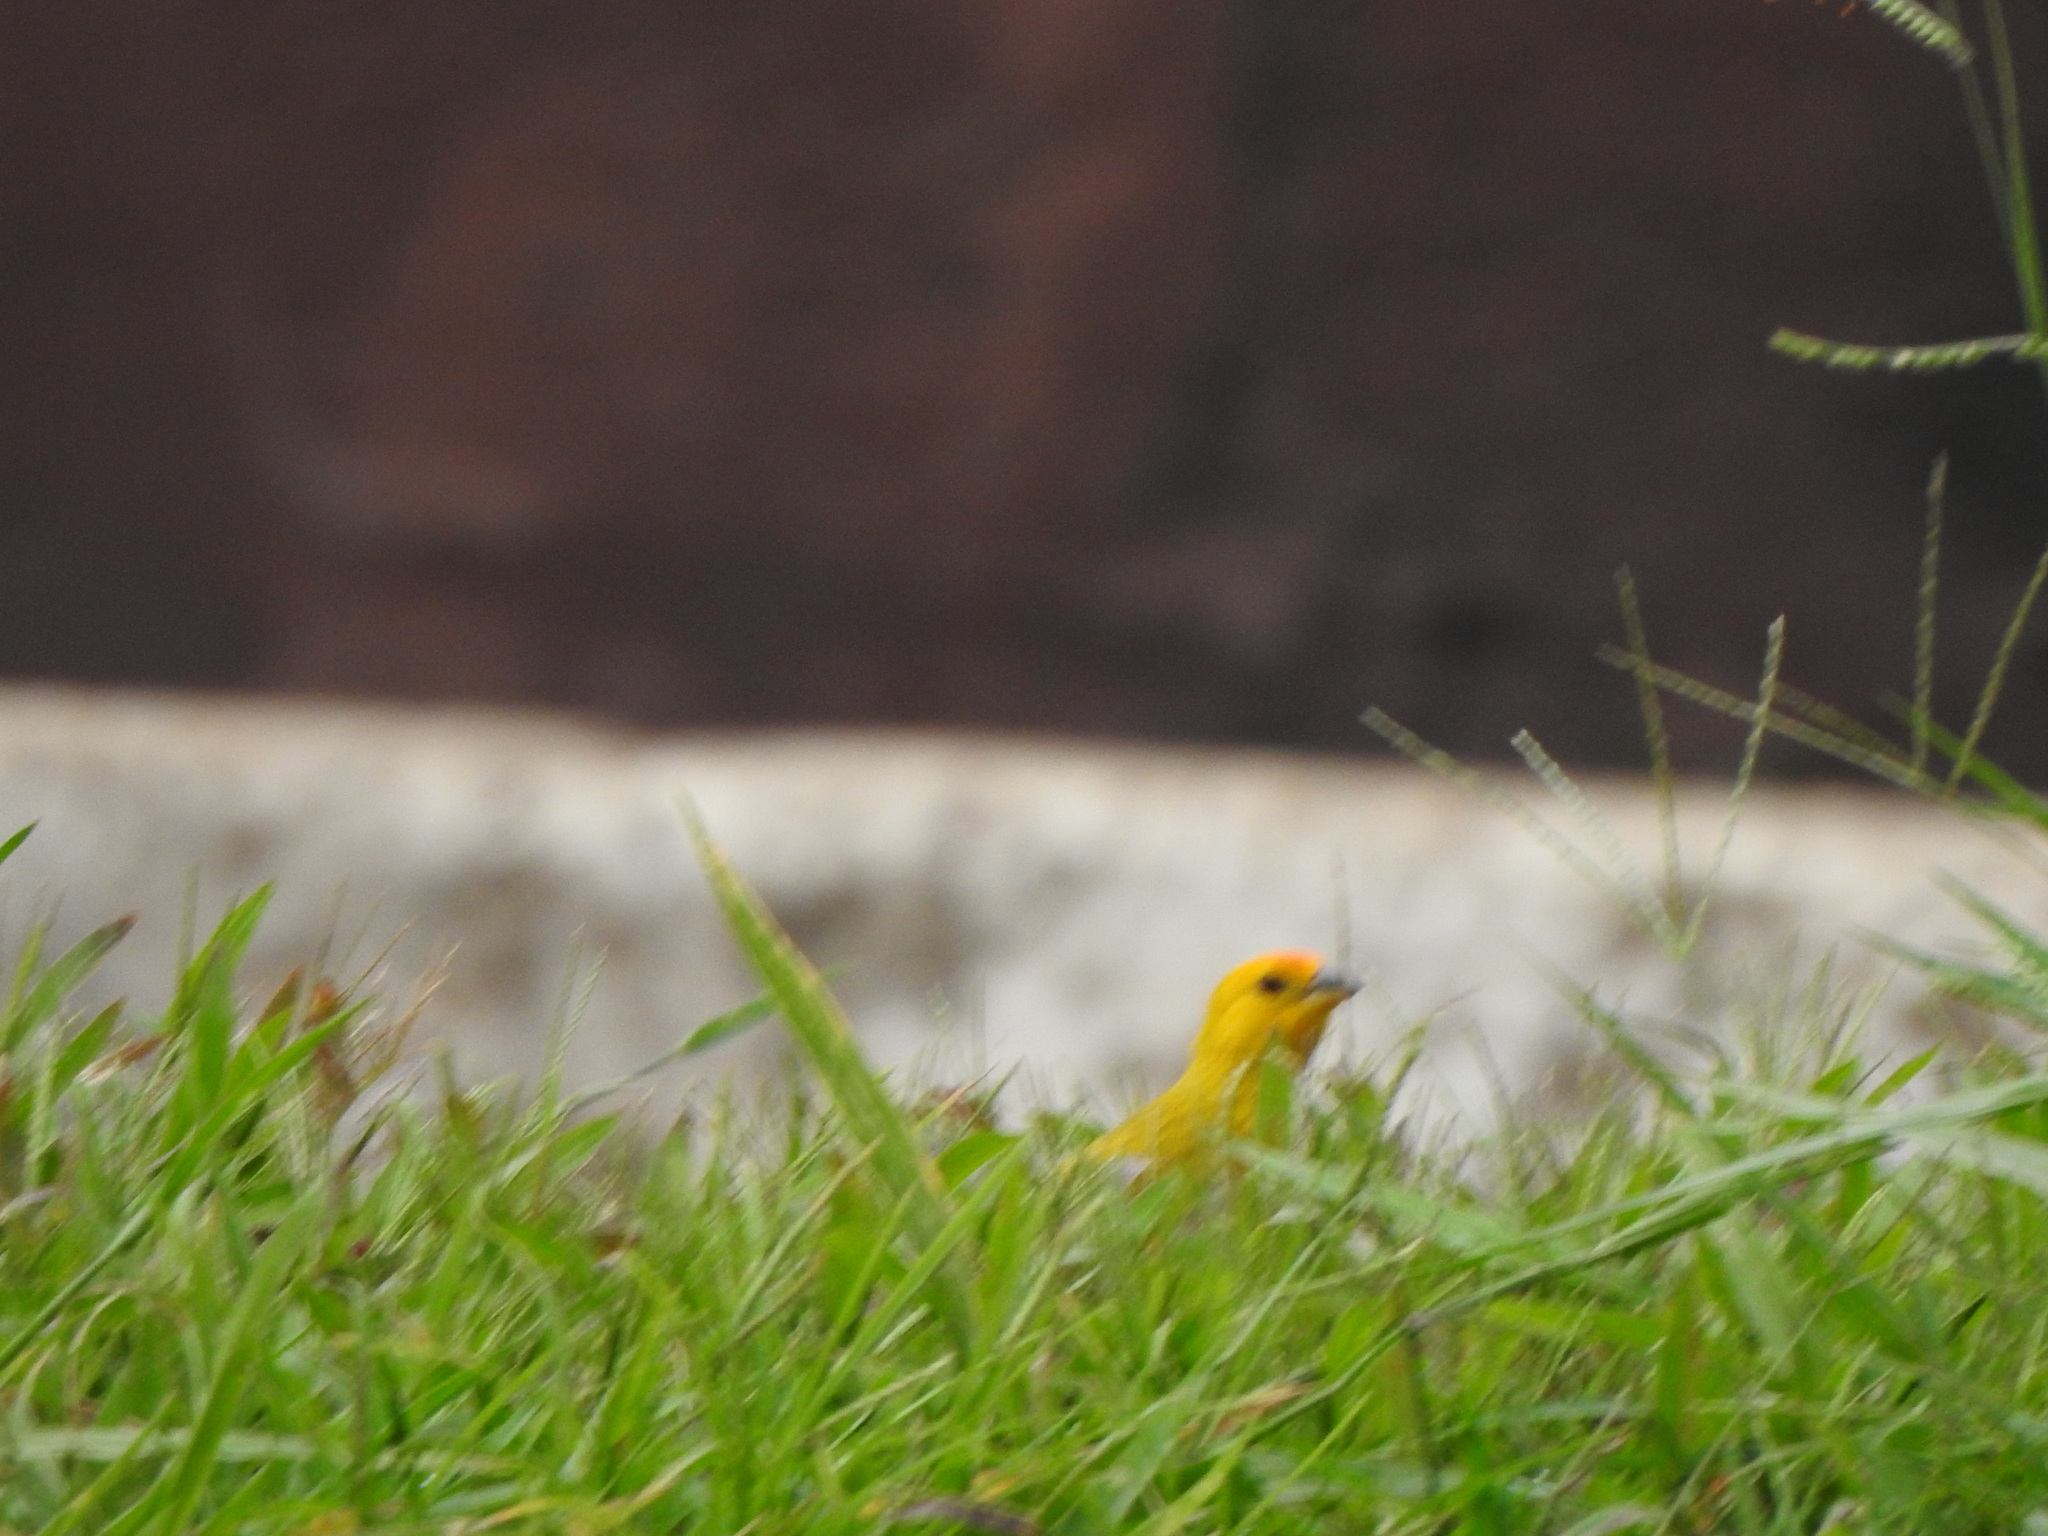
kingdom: Animalia
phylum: Chordata
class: Aves
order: Passeriformes
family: Thraupidae
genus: Sicalis
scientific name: Sicalis flaveola
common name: Saffron finch
